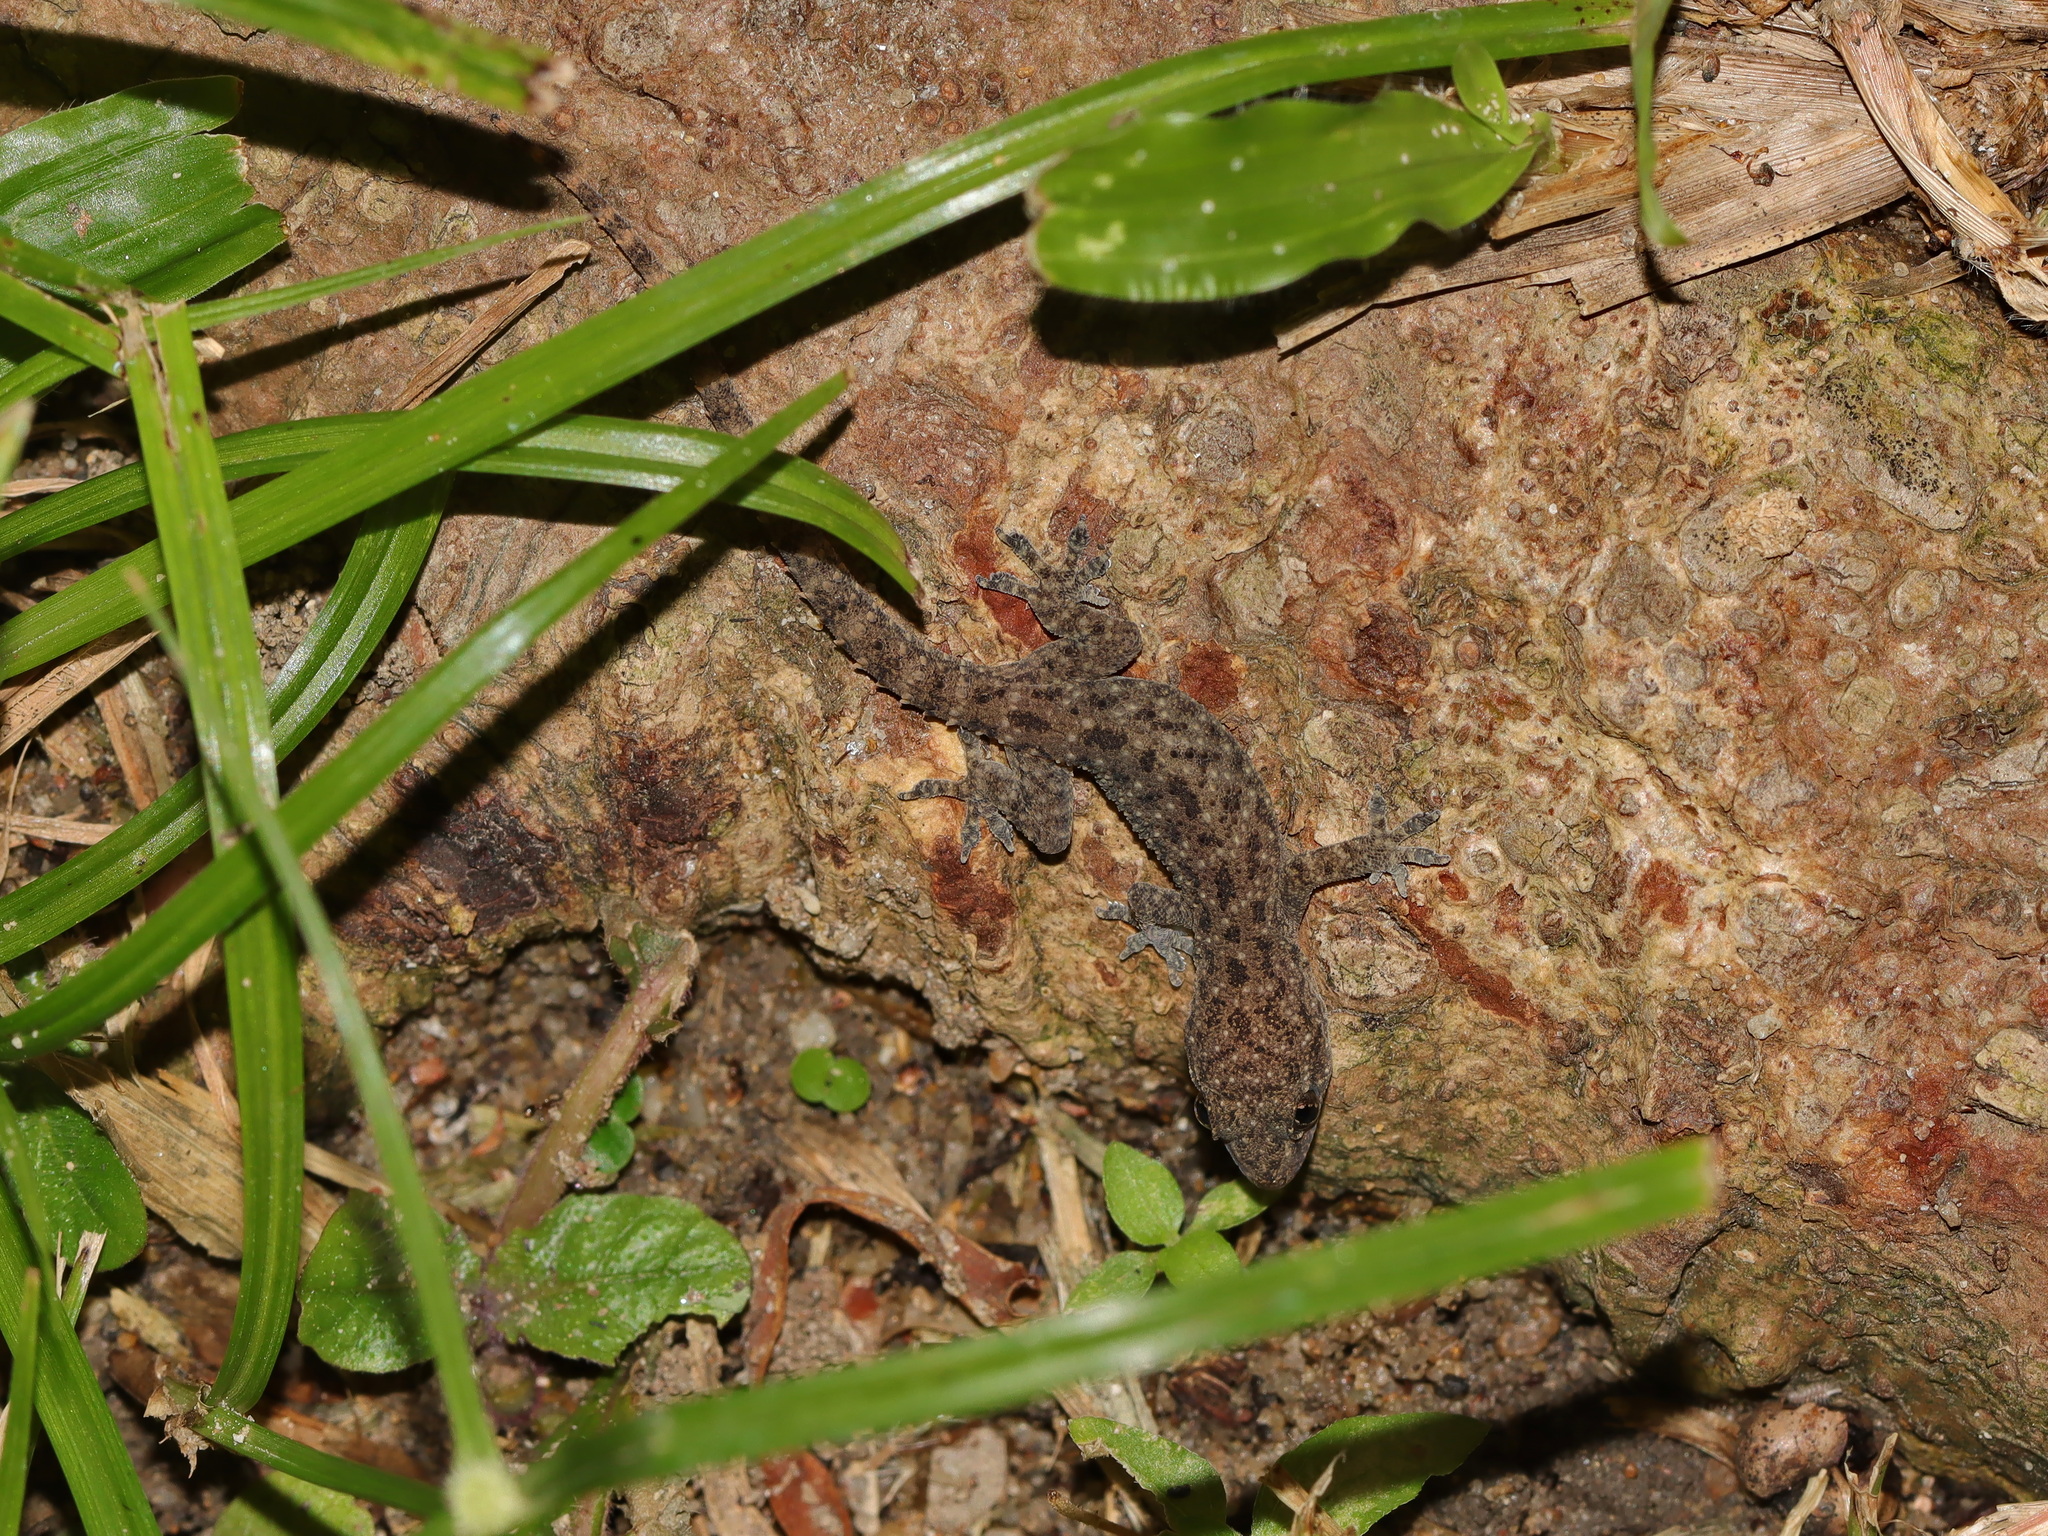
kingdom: Animalia
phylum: Chordata
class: Squamata
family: Gekkonidae
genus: Hemidactylus
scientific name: Hemidactylus parvimaculatus
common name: Spotted house gecko
